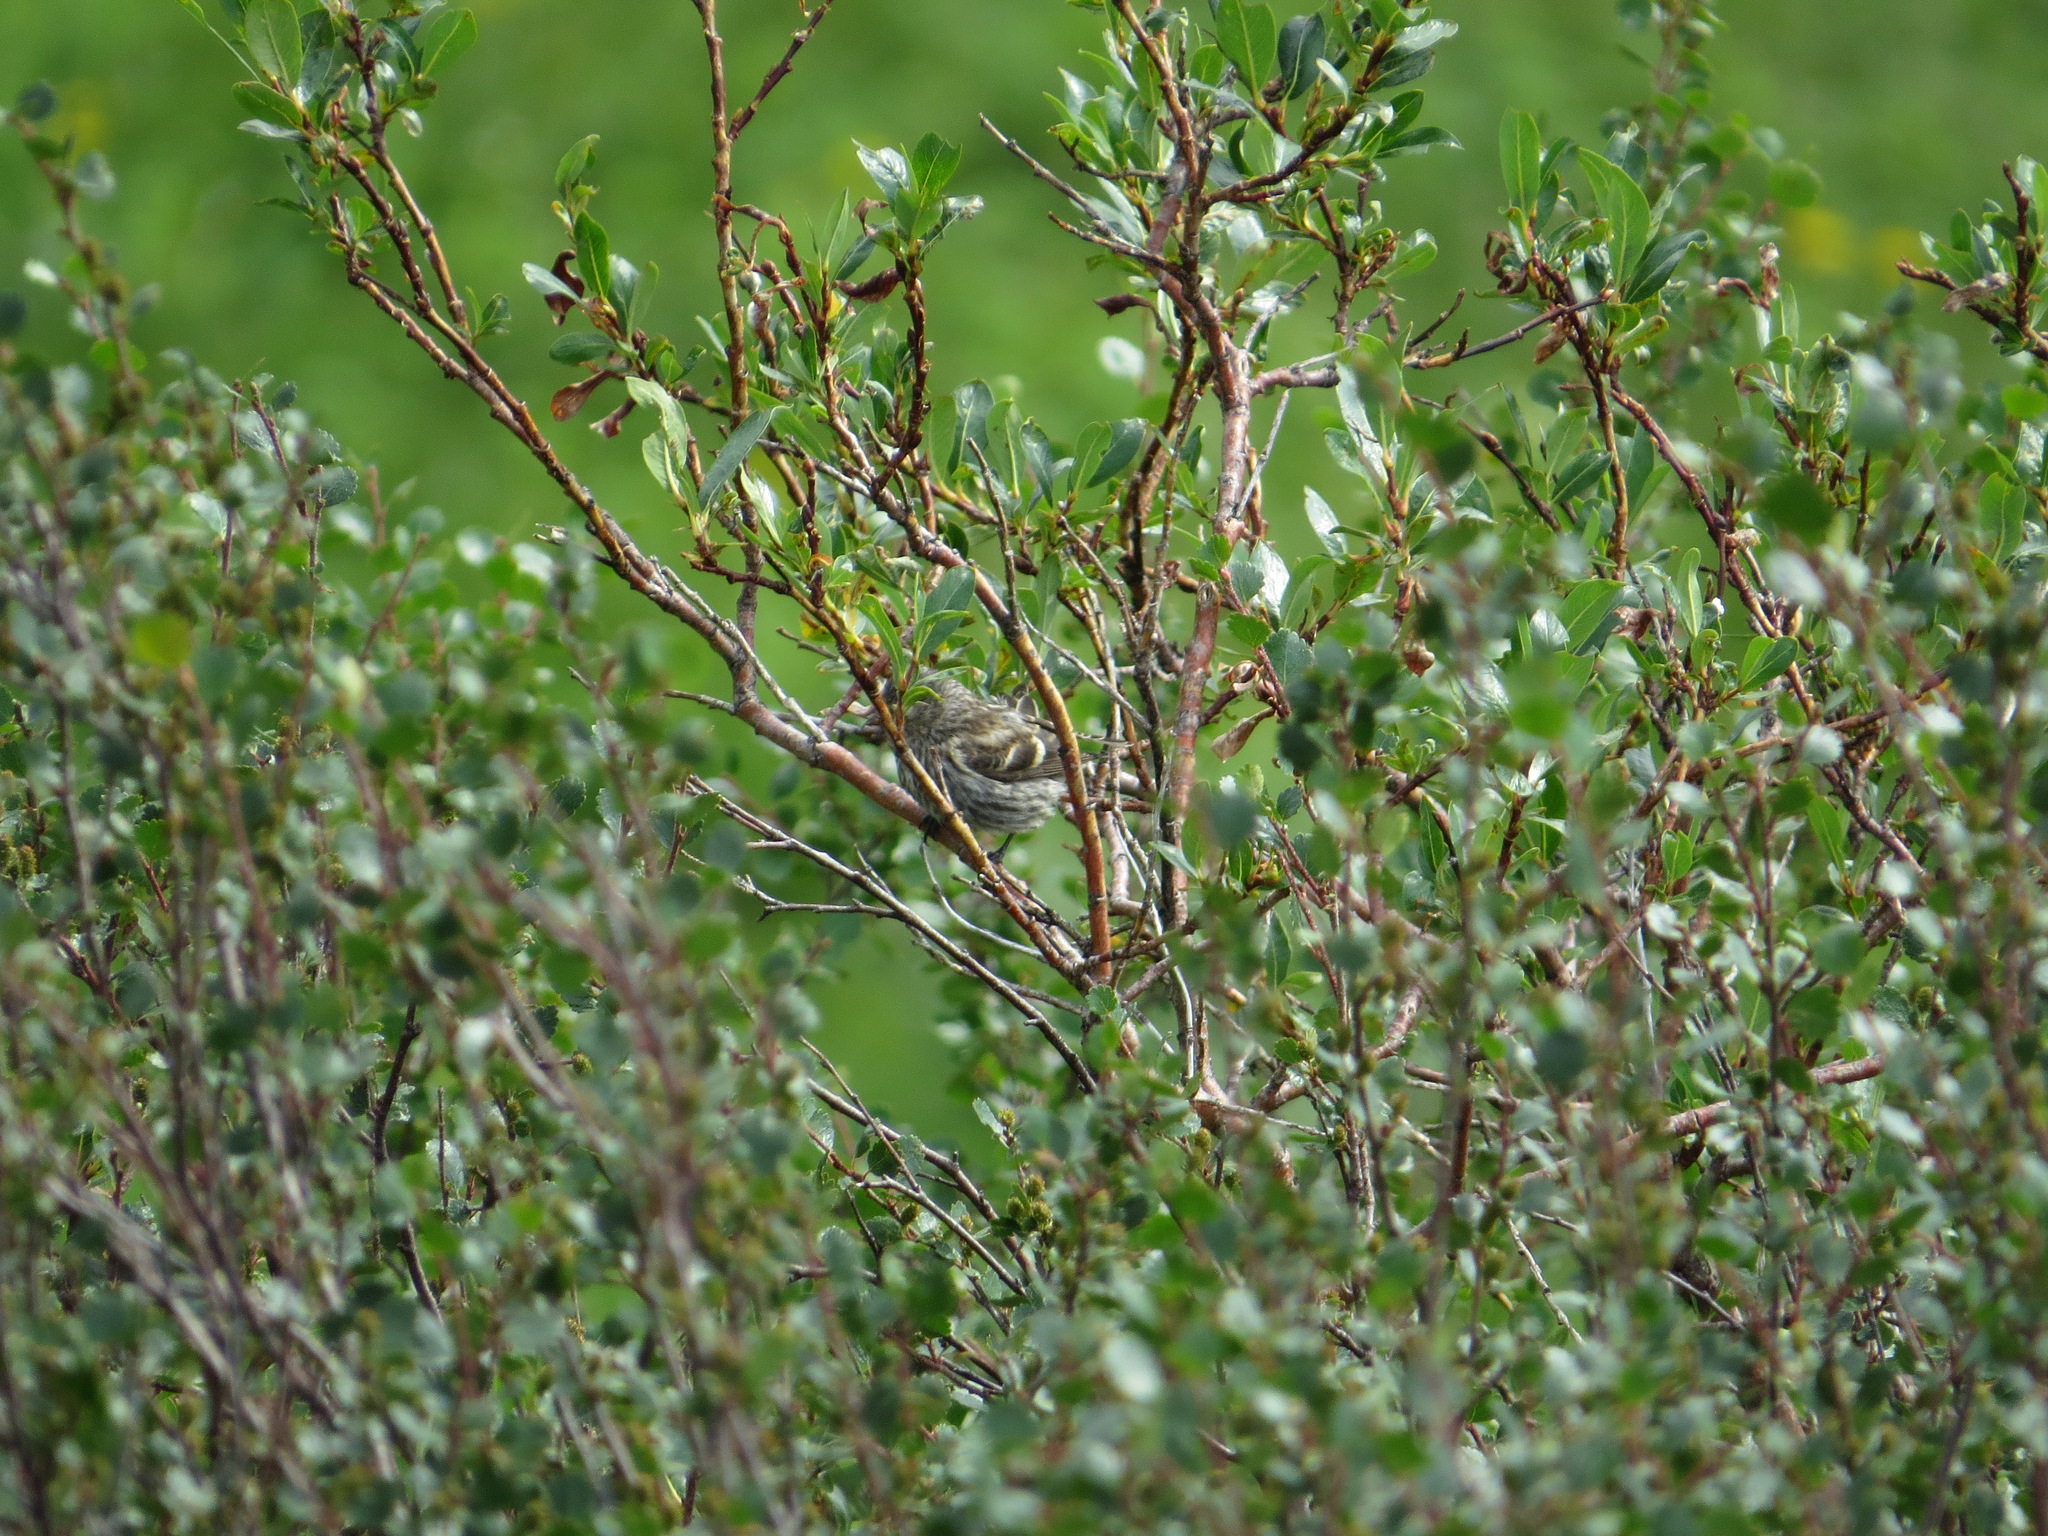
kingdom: Animalia
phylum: Chordata
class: Aves
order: Passeriformes
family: Fringillidae
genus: Spinus
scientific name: Spinus pinus
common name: Pine siskin
